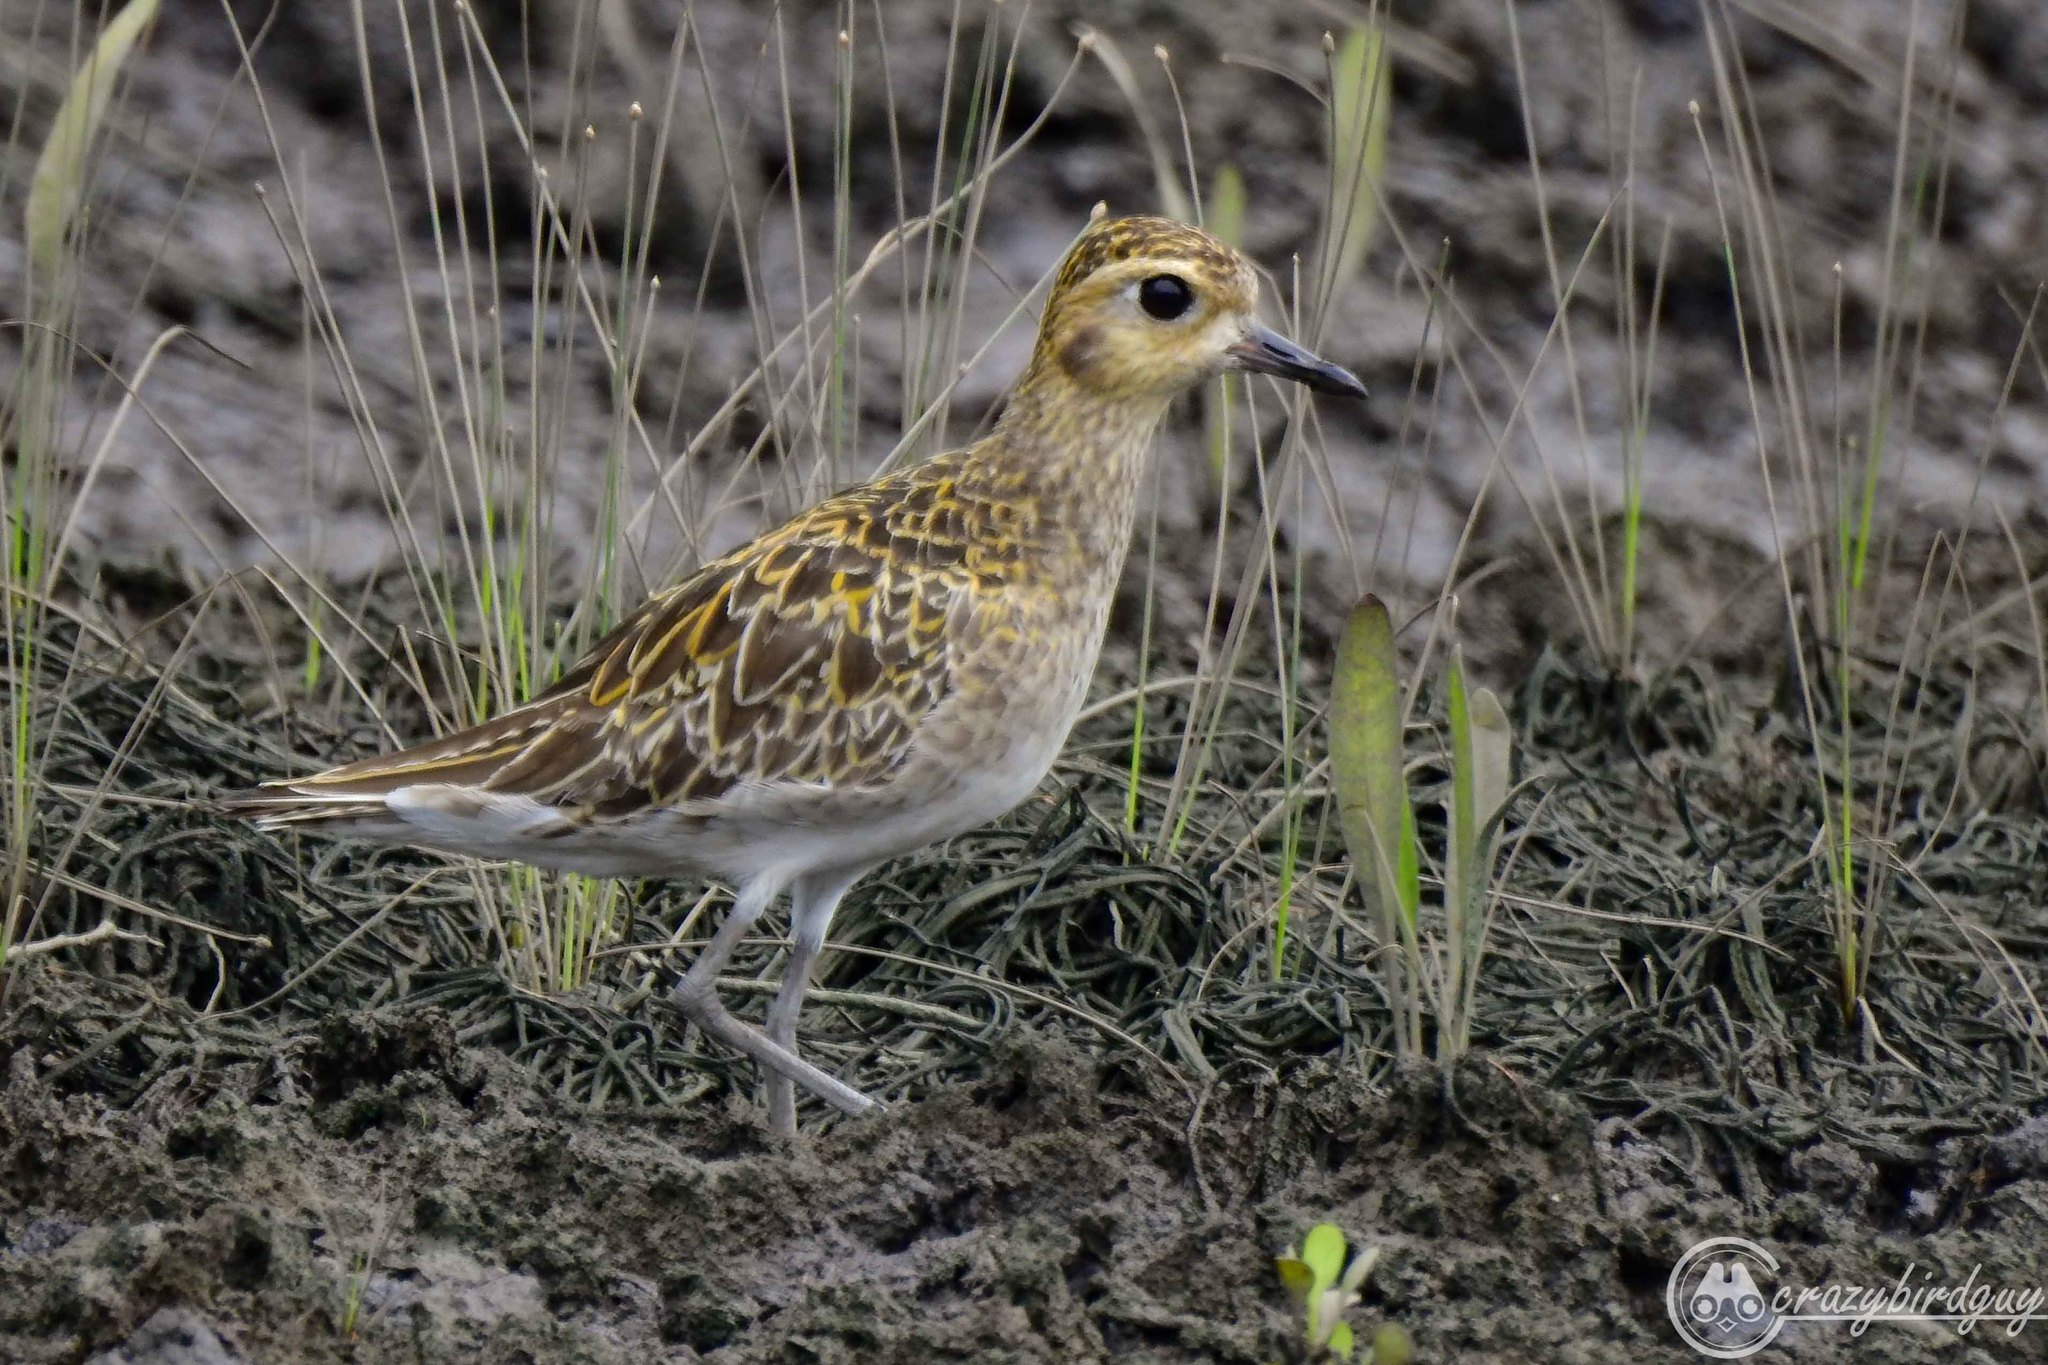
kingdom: Animalia
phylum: Chordata
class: Aves
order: Charadriiformes
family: Charadriidae
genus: Pluvialis
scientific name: Pluvialis fulva
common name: Pacific golden plover
